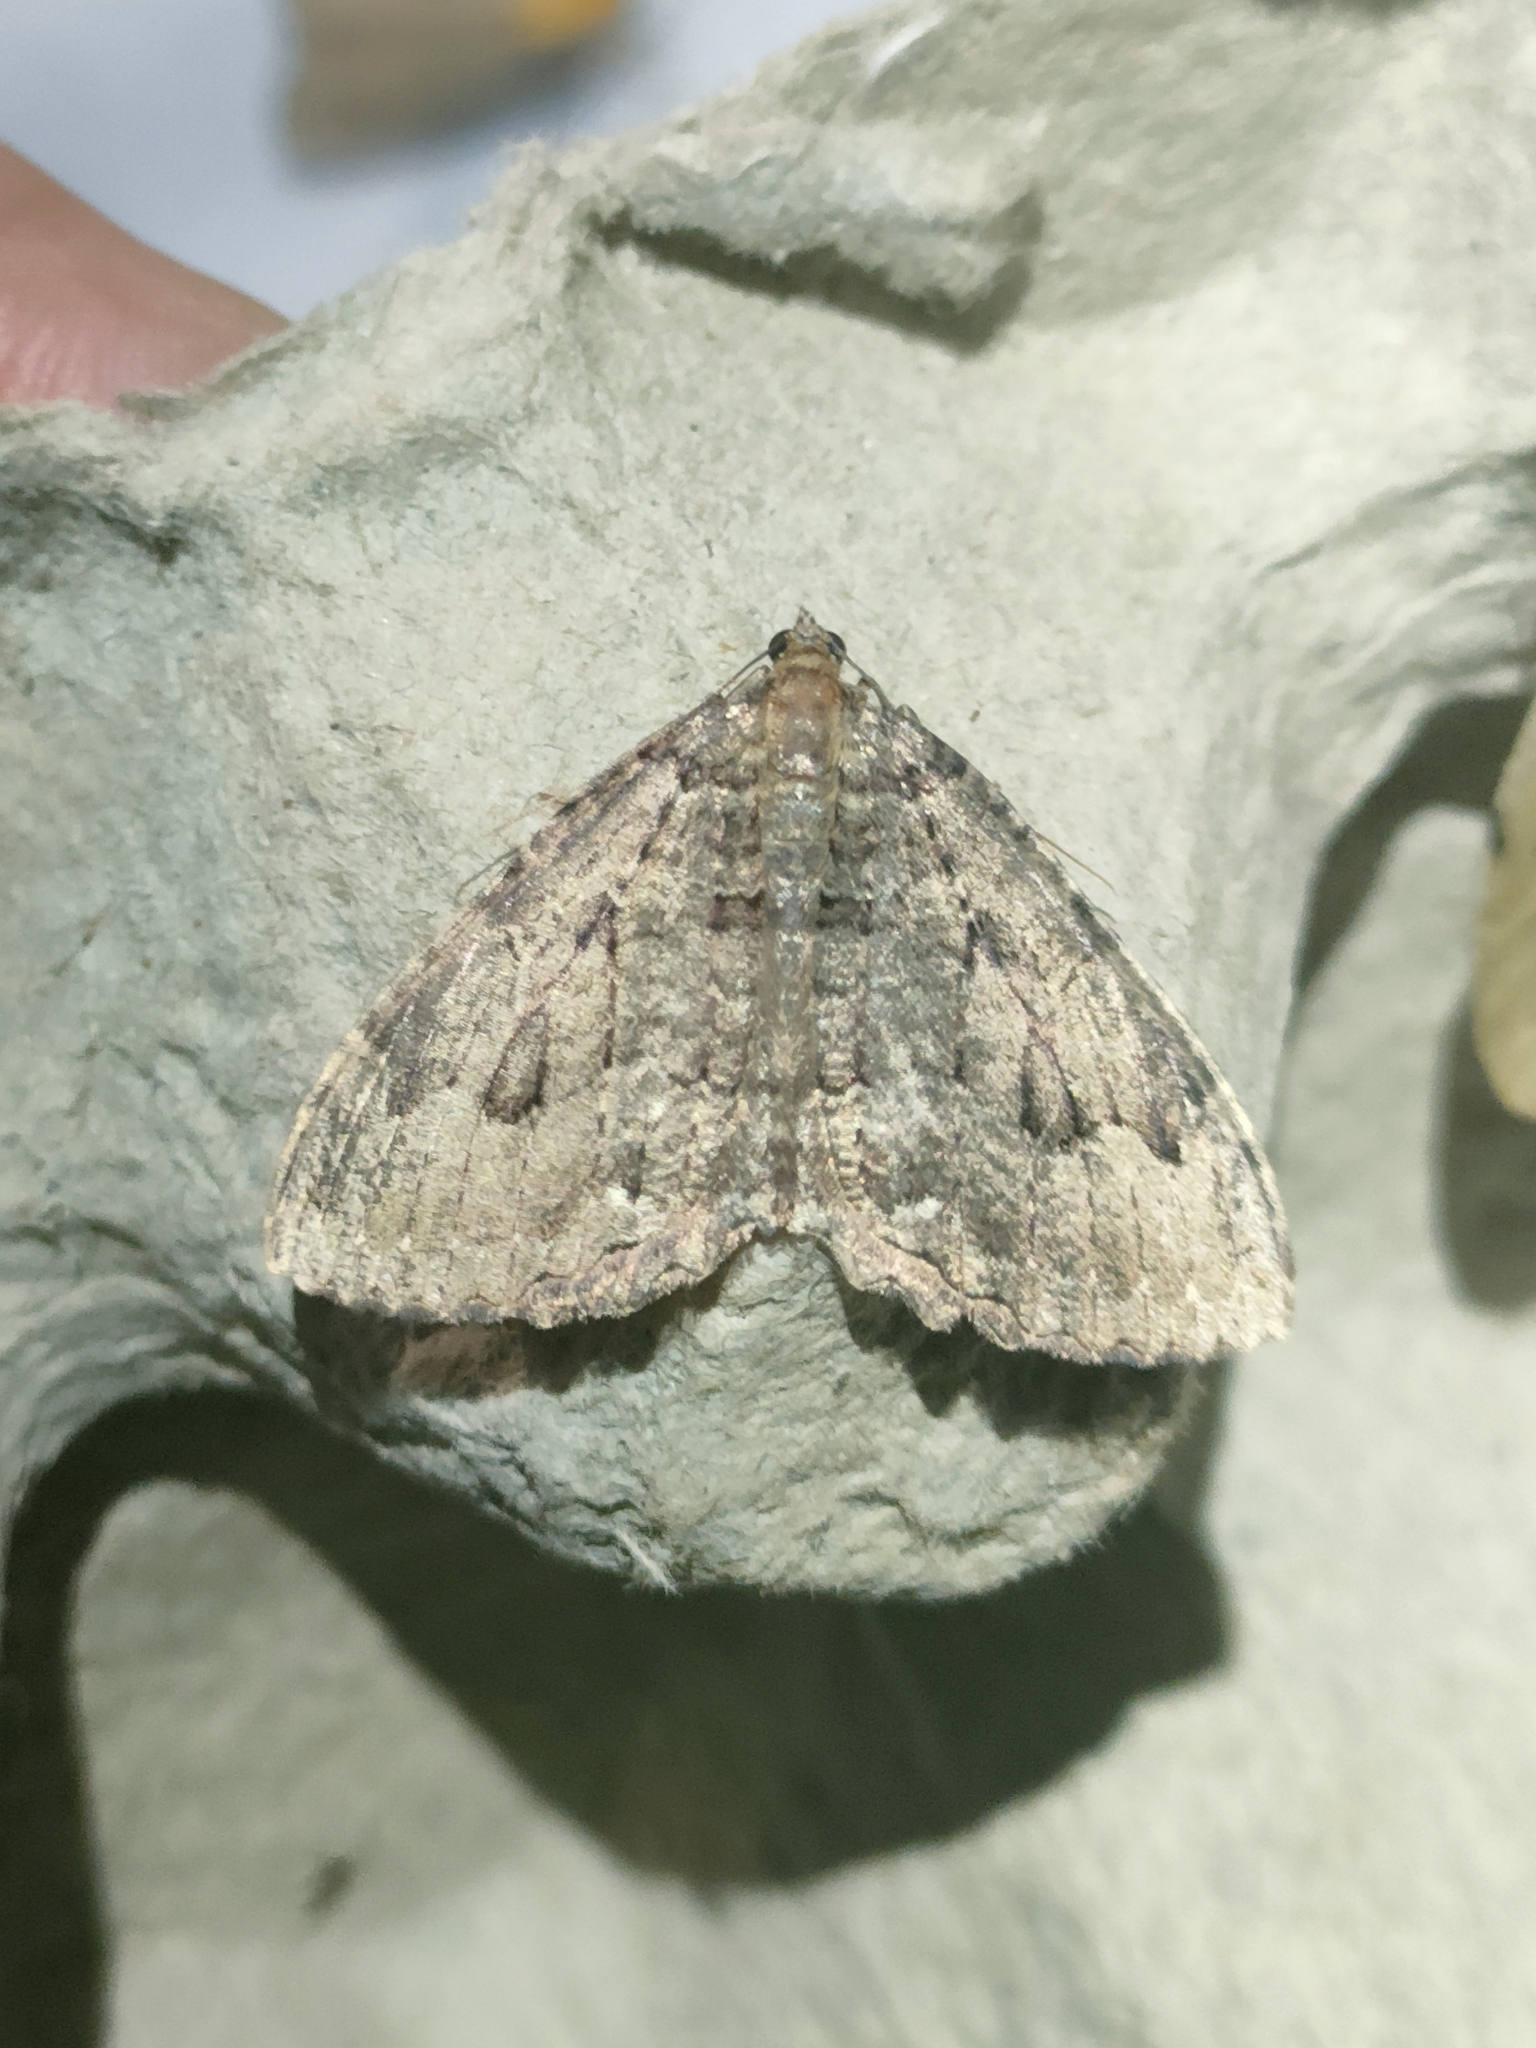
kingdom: Animalia
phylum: Arthropoda
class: Insecta
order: Lepidoptera
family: Geometridae
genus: Triphosa
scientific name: Triphosa dubitata
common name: Tissue
